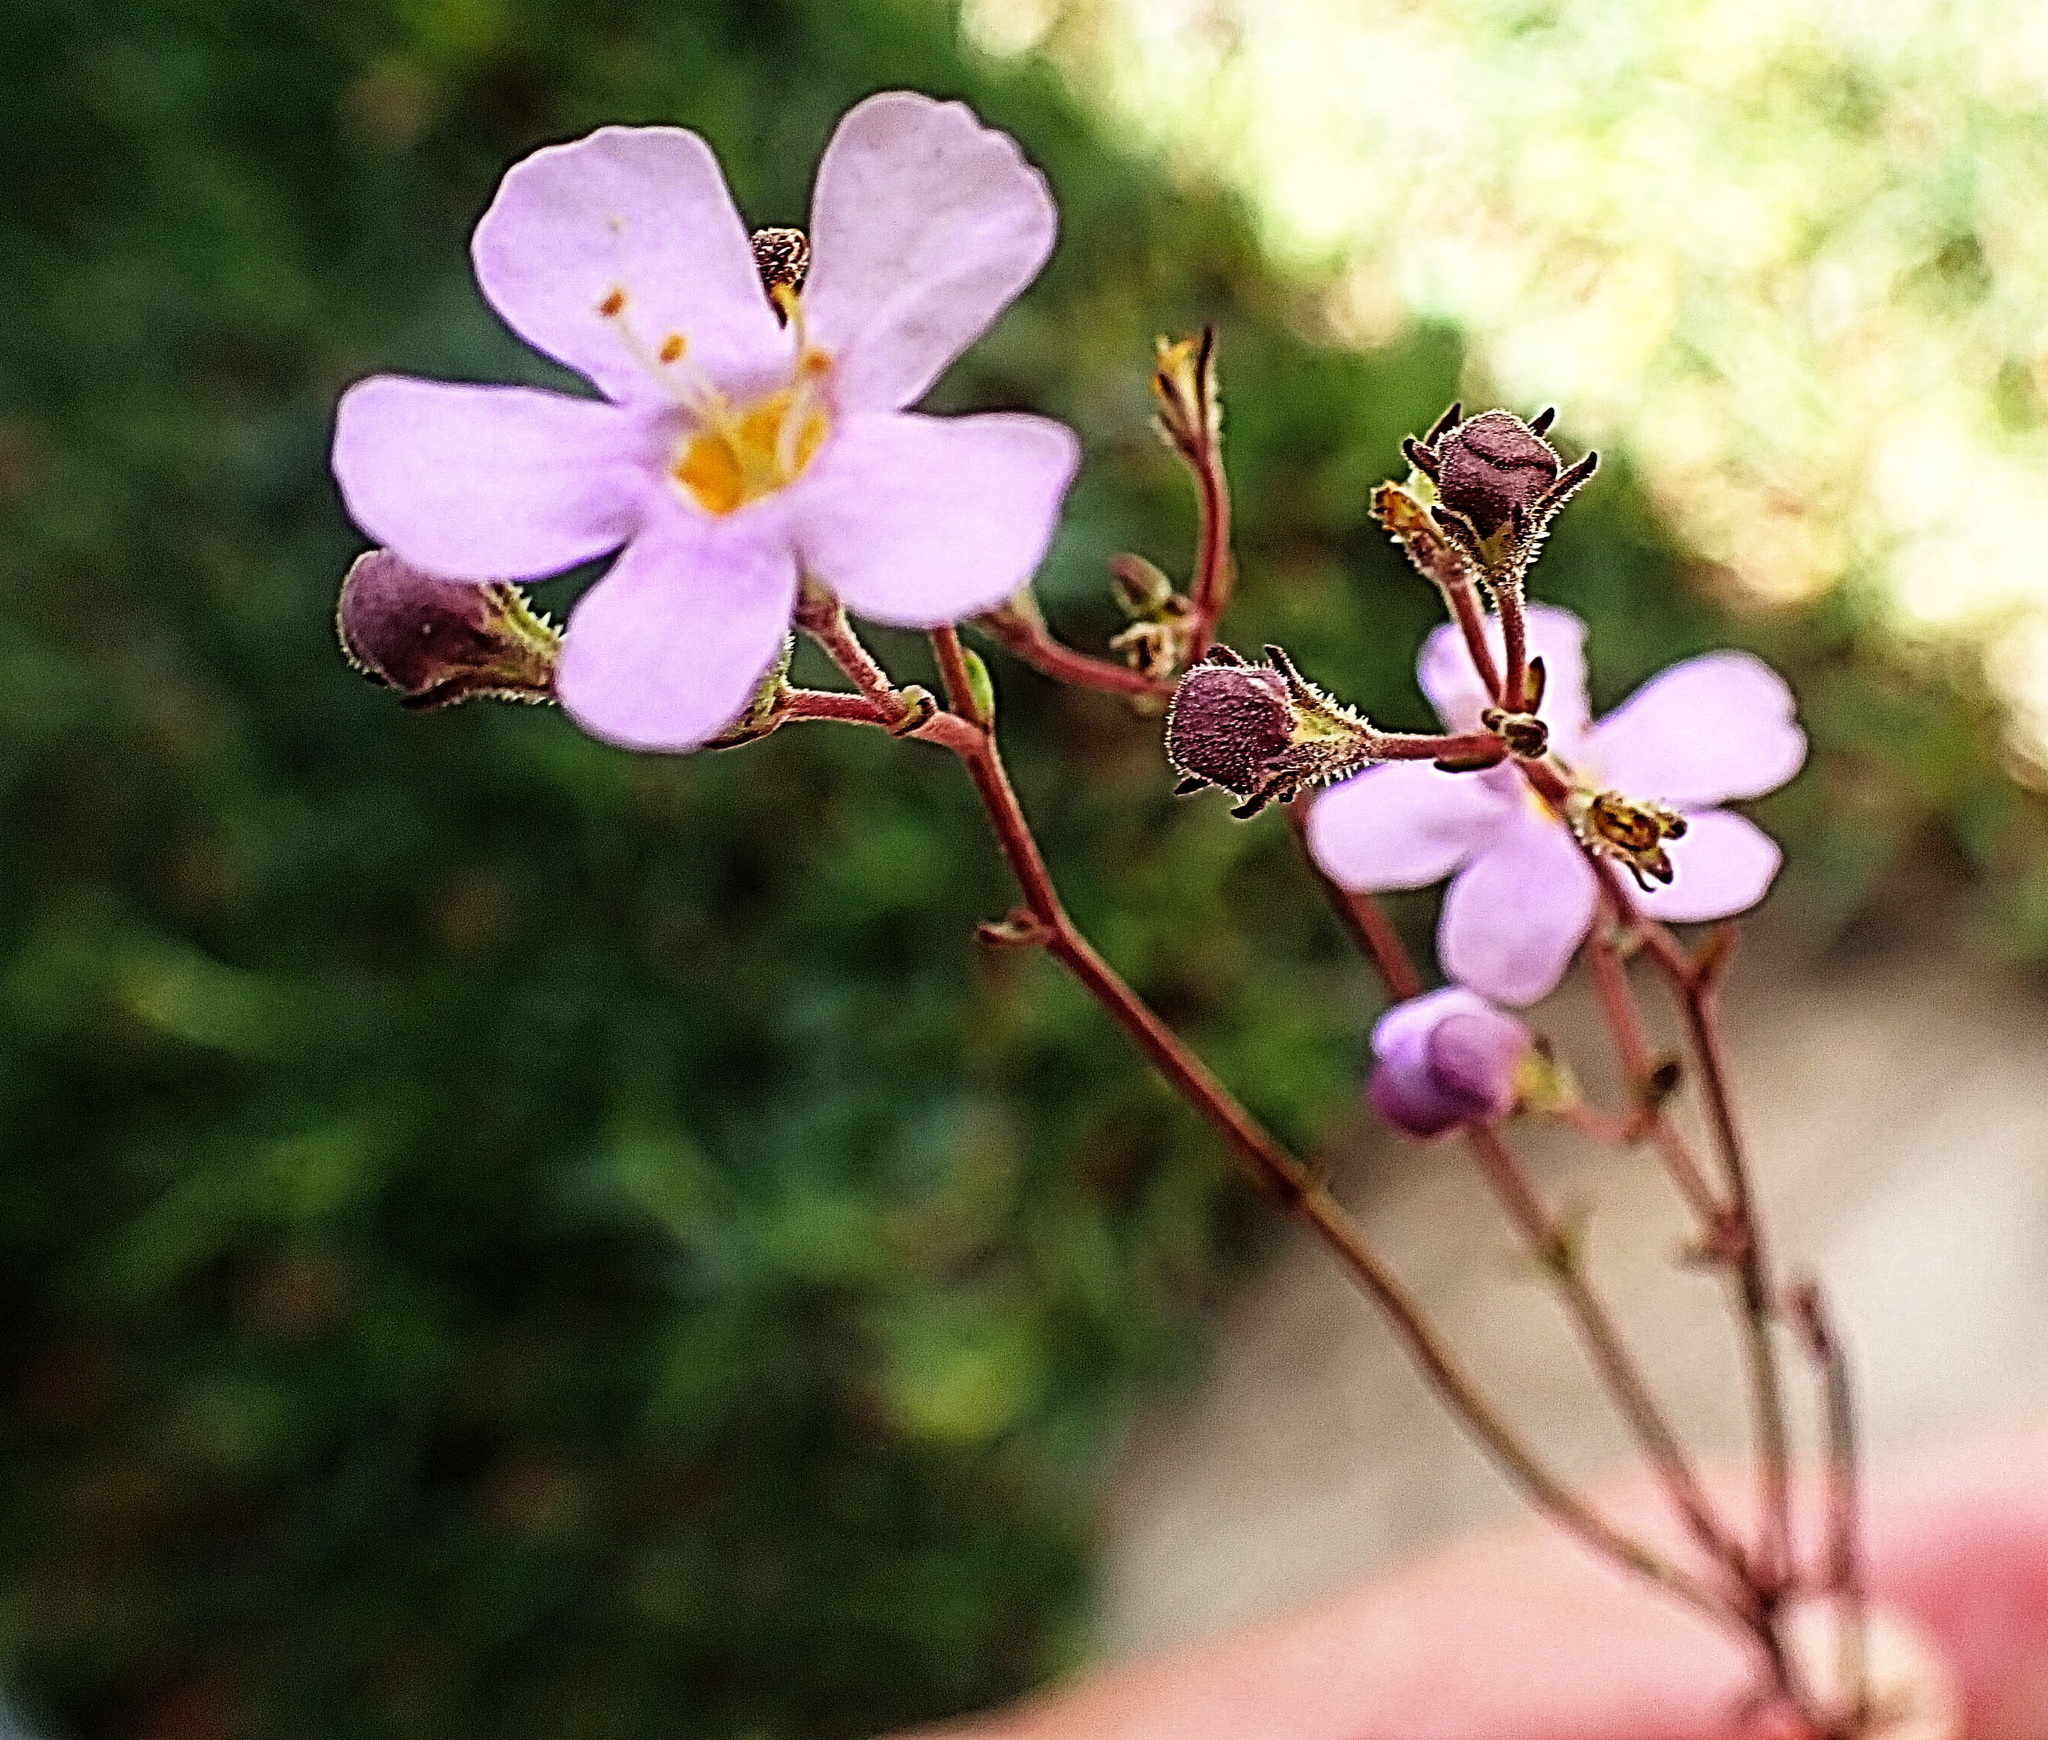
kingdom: Plantae
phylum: Tracheophyta
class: Magnoliopsida
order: Lamiales
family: Scrophulariaceae
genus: Chaenostoma
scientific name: Chaenostoma caeruleum
